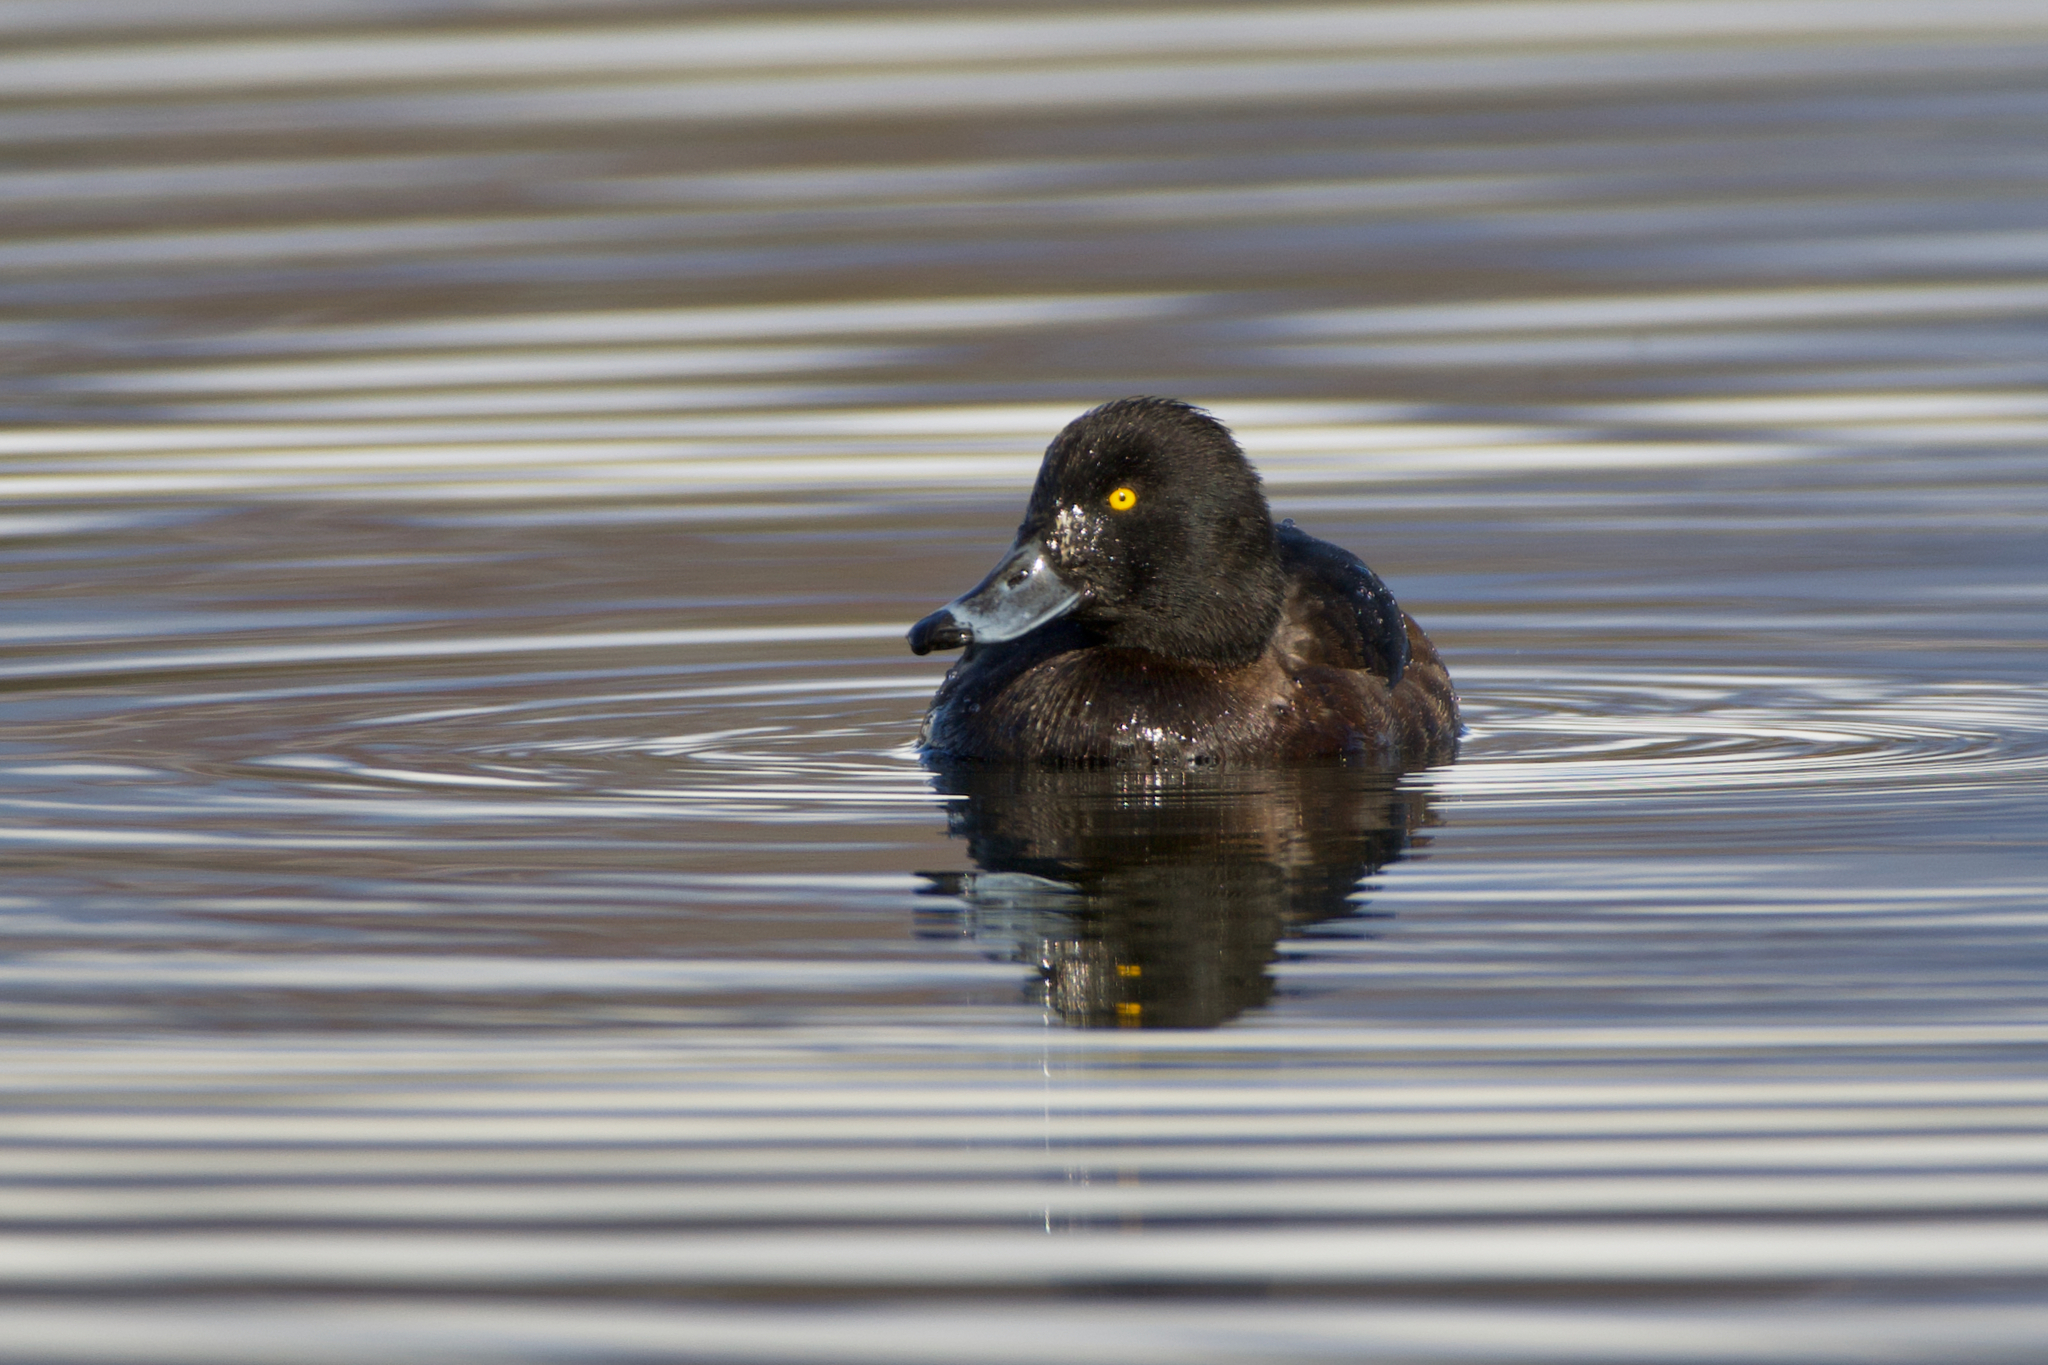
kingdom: Animalia
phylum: Chordata
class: Aves
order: Anseriformes
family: Anatidae
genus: Aythya
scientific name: Aythya fuligula
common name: Tufted duck
